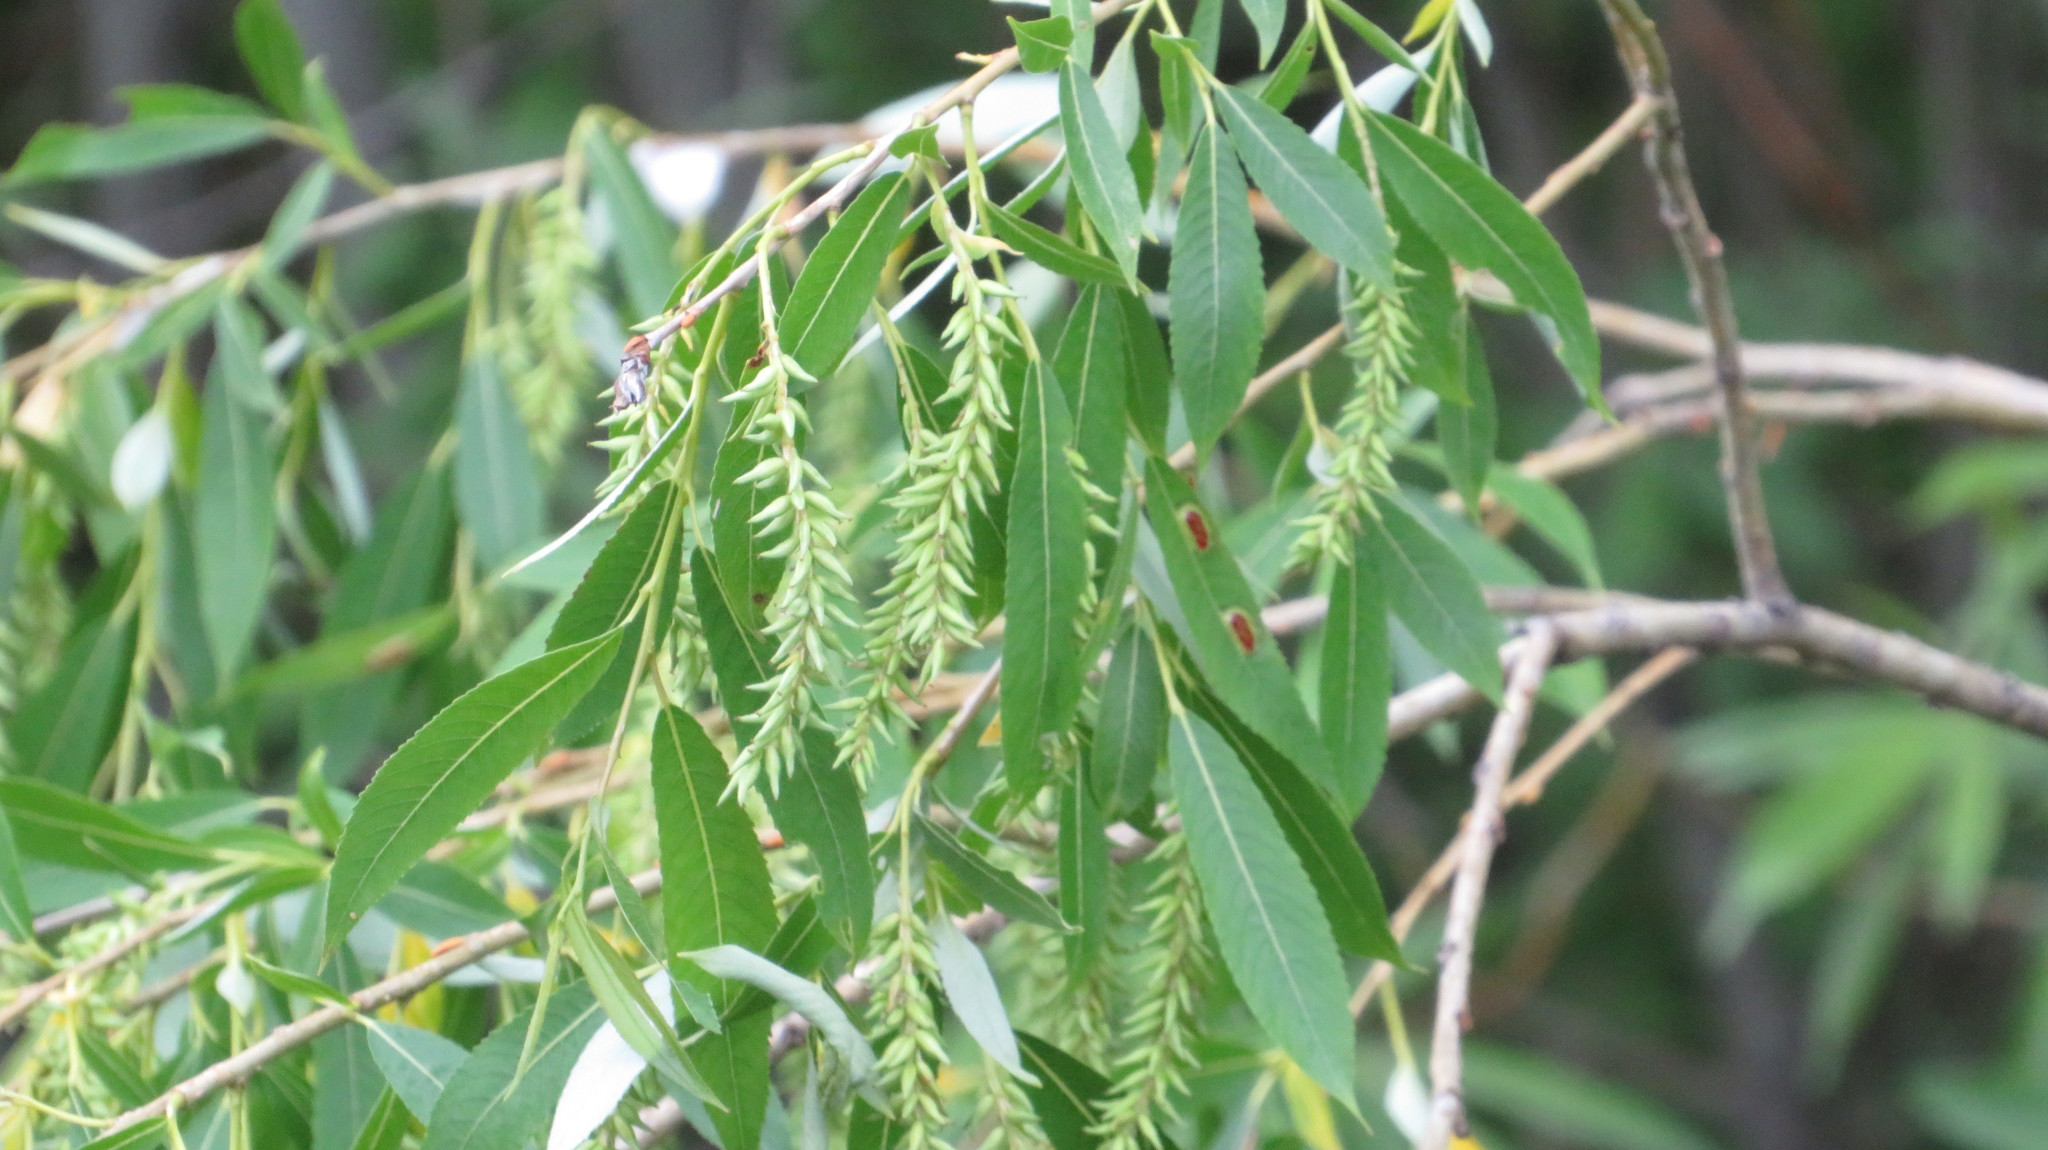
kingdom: Plantae
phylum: Tracheophyta
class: Magnoliopsida
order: Malpighiales
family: Salicaceae
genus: Salix
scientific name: Salix triandra
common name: Almond willow
